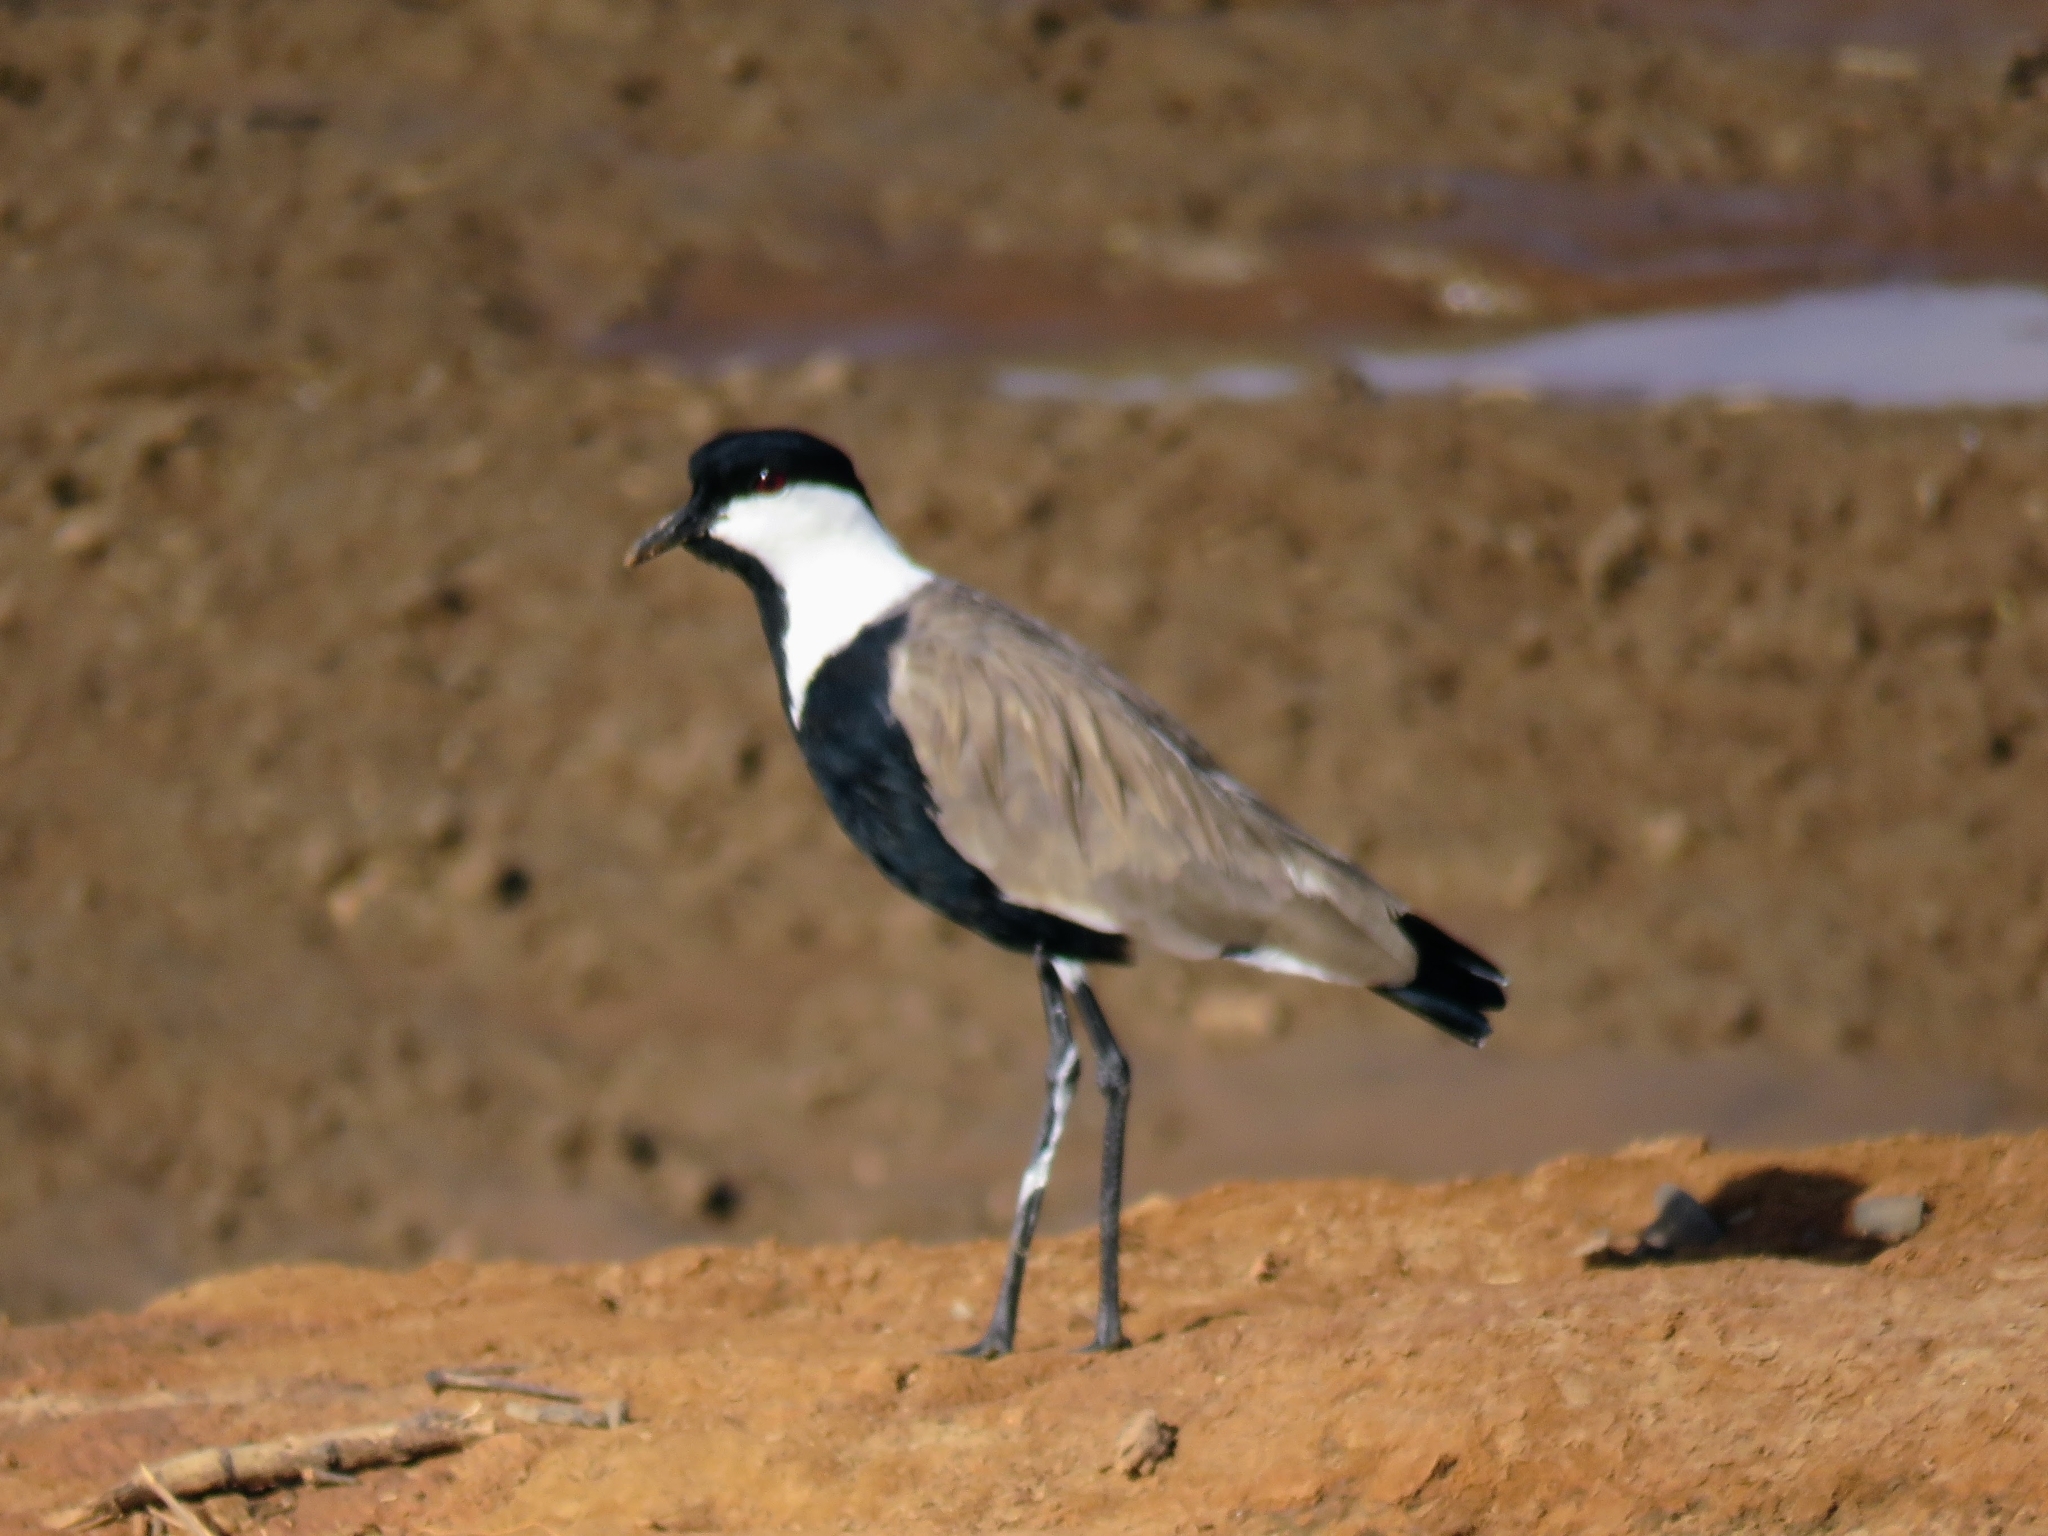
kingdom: Animalia
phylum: Chordata
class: Aves
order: Charadriiformes
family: Charadriidae
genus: Vanellus
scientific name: Vanellus spinosus
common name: Spur-winged lapwing
